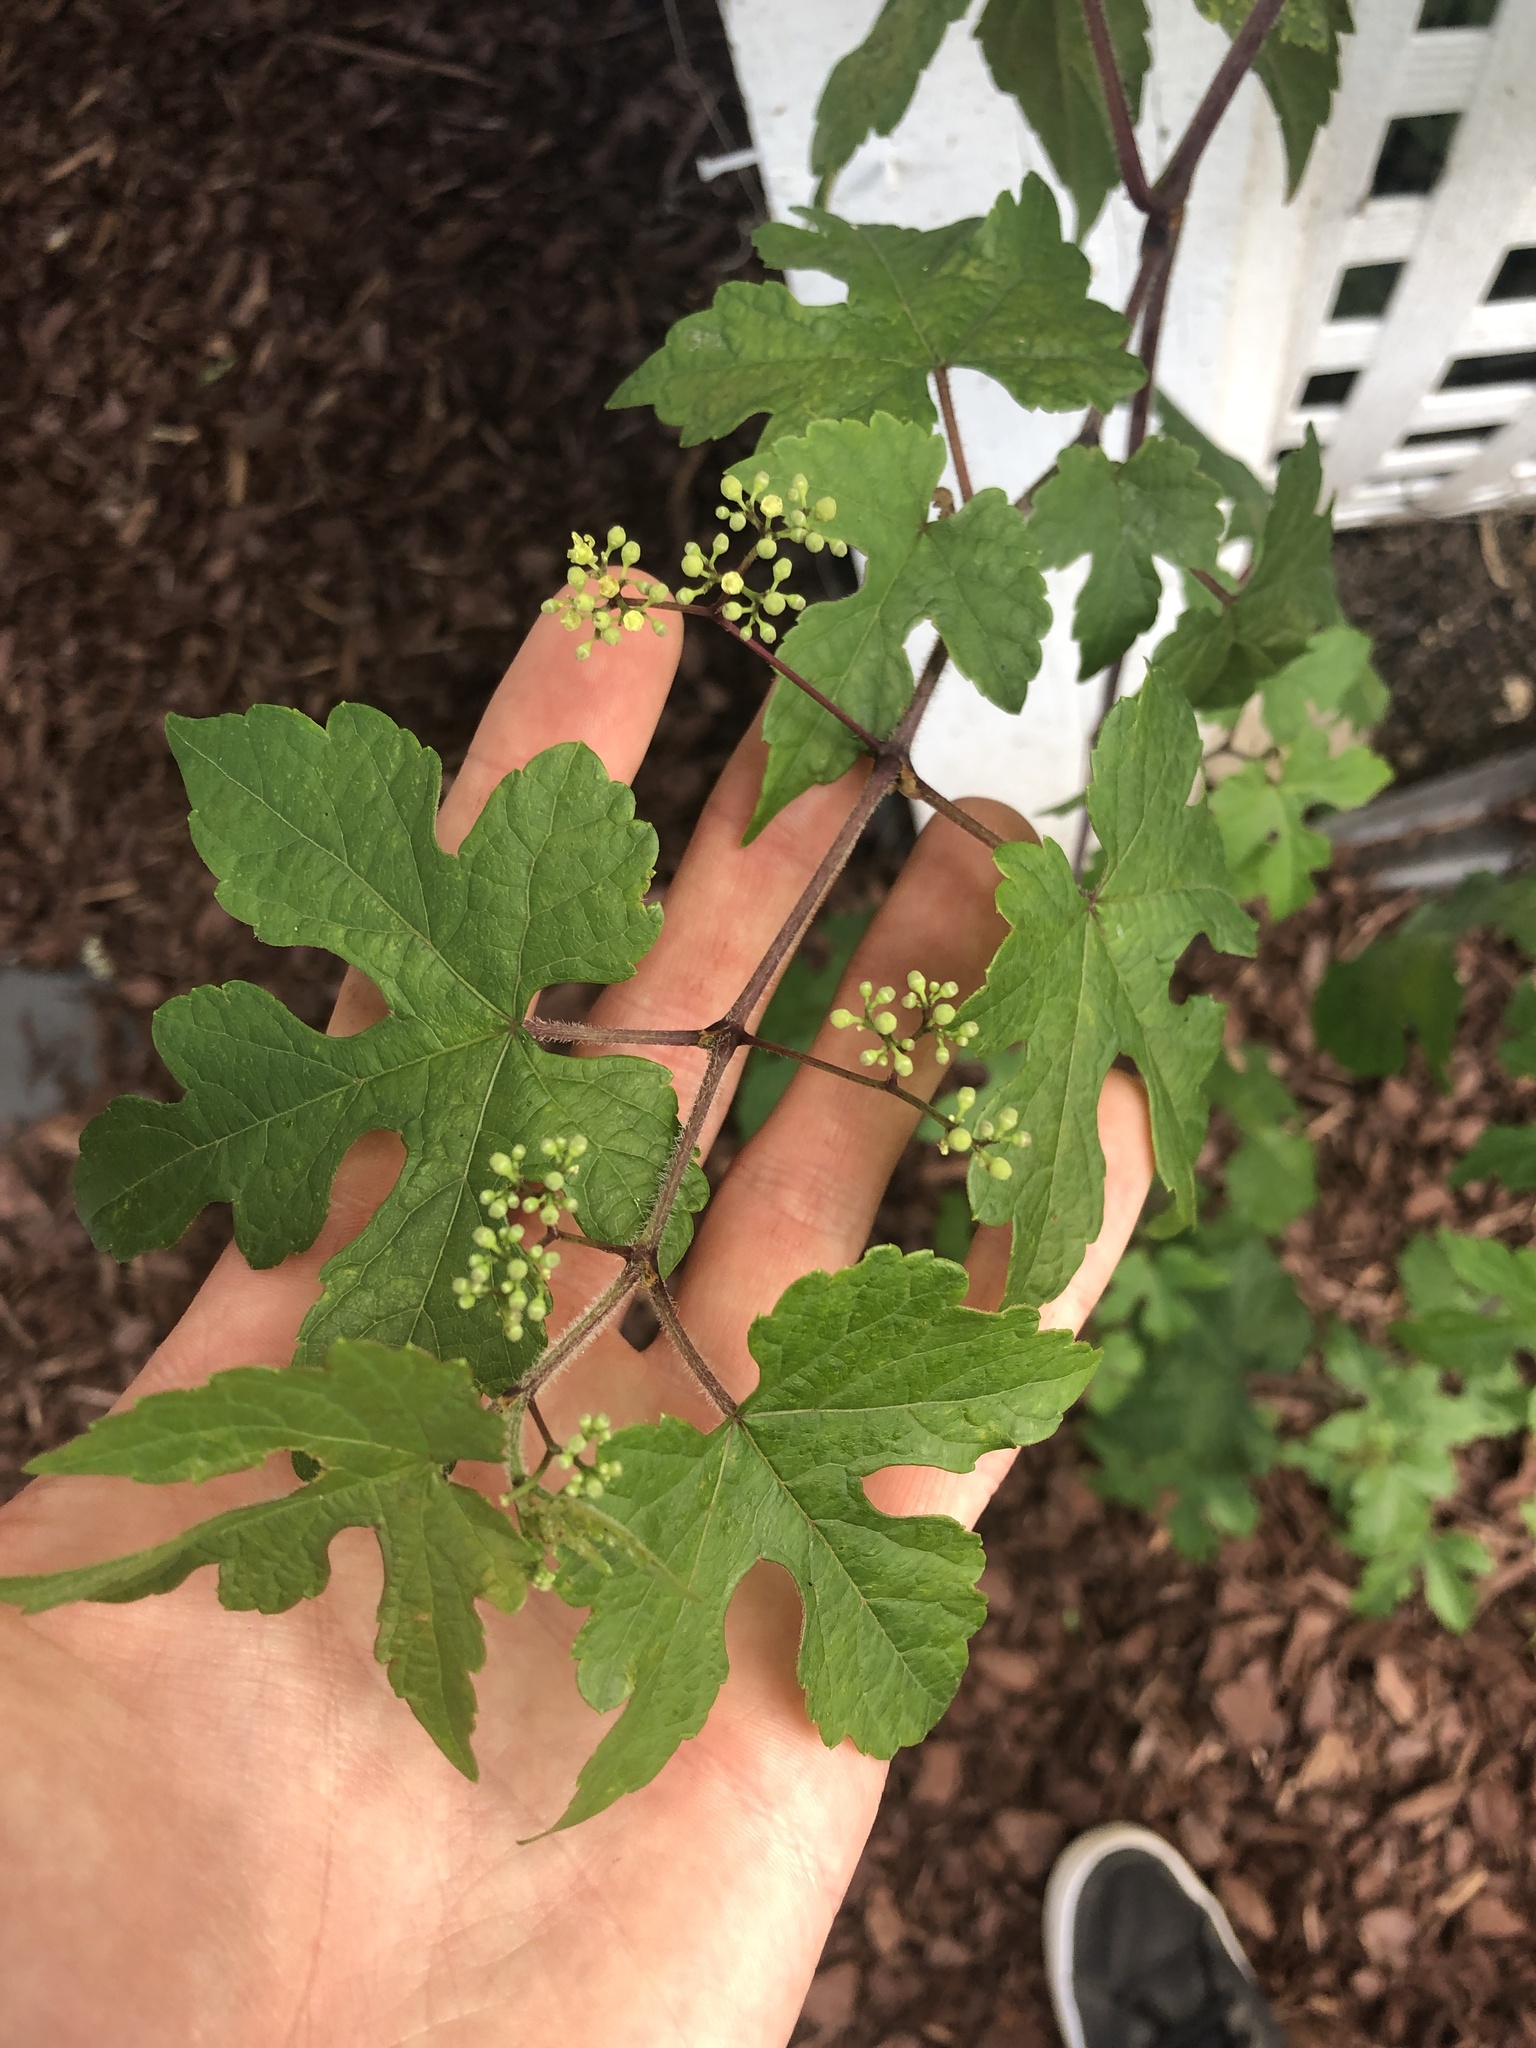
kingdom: Plantae
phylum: Tracheophyta
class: Magnoliopsida
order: Vitales
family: Vitaceae
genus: Ampelopsis
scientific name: Ampelopsis glandulosa
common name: Amur peppervine
